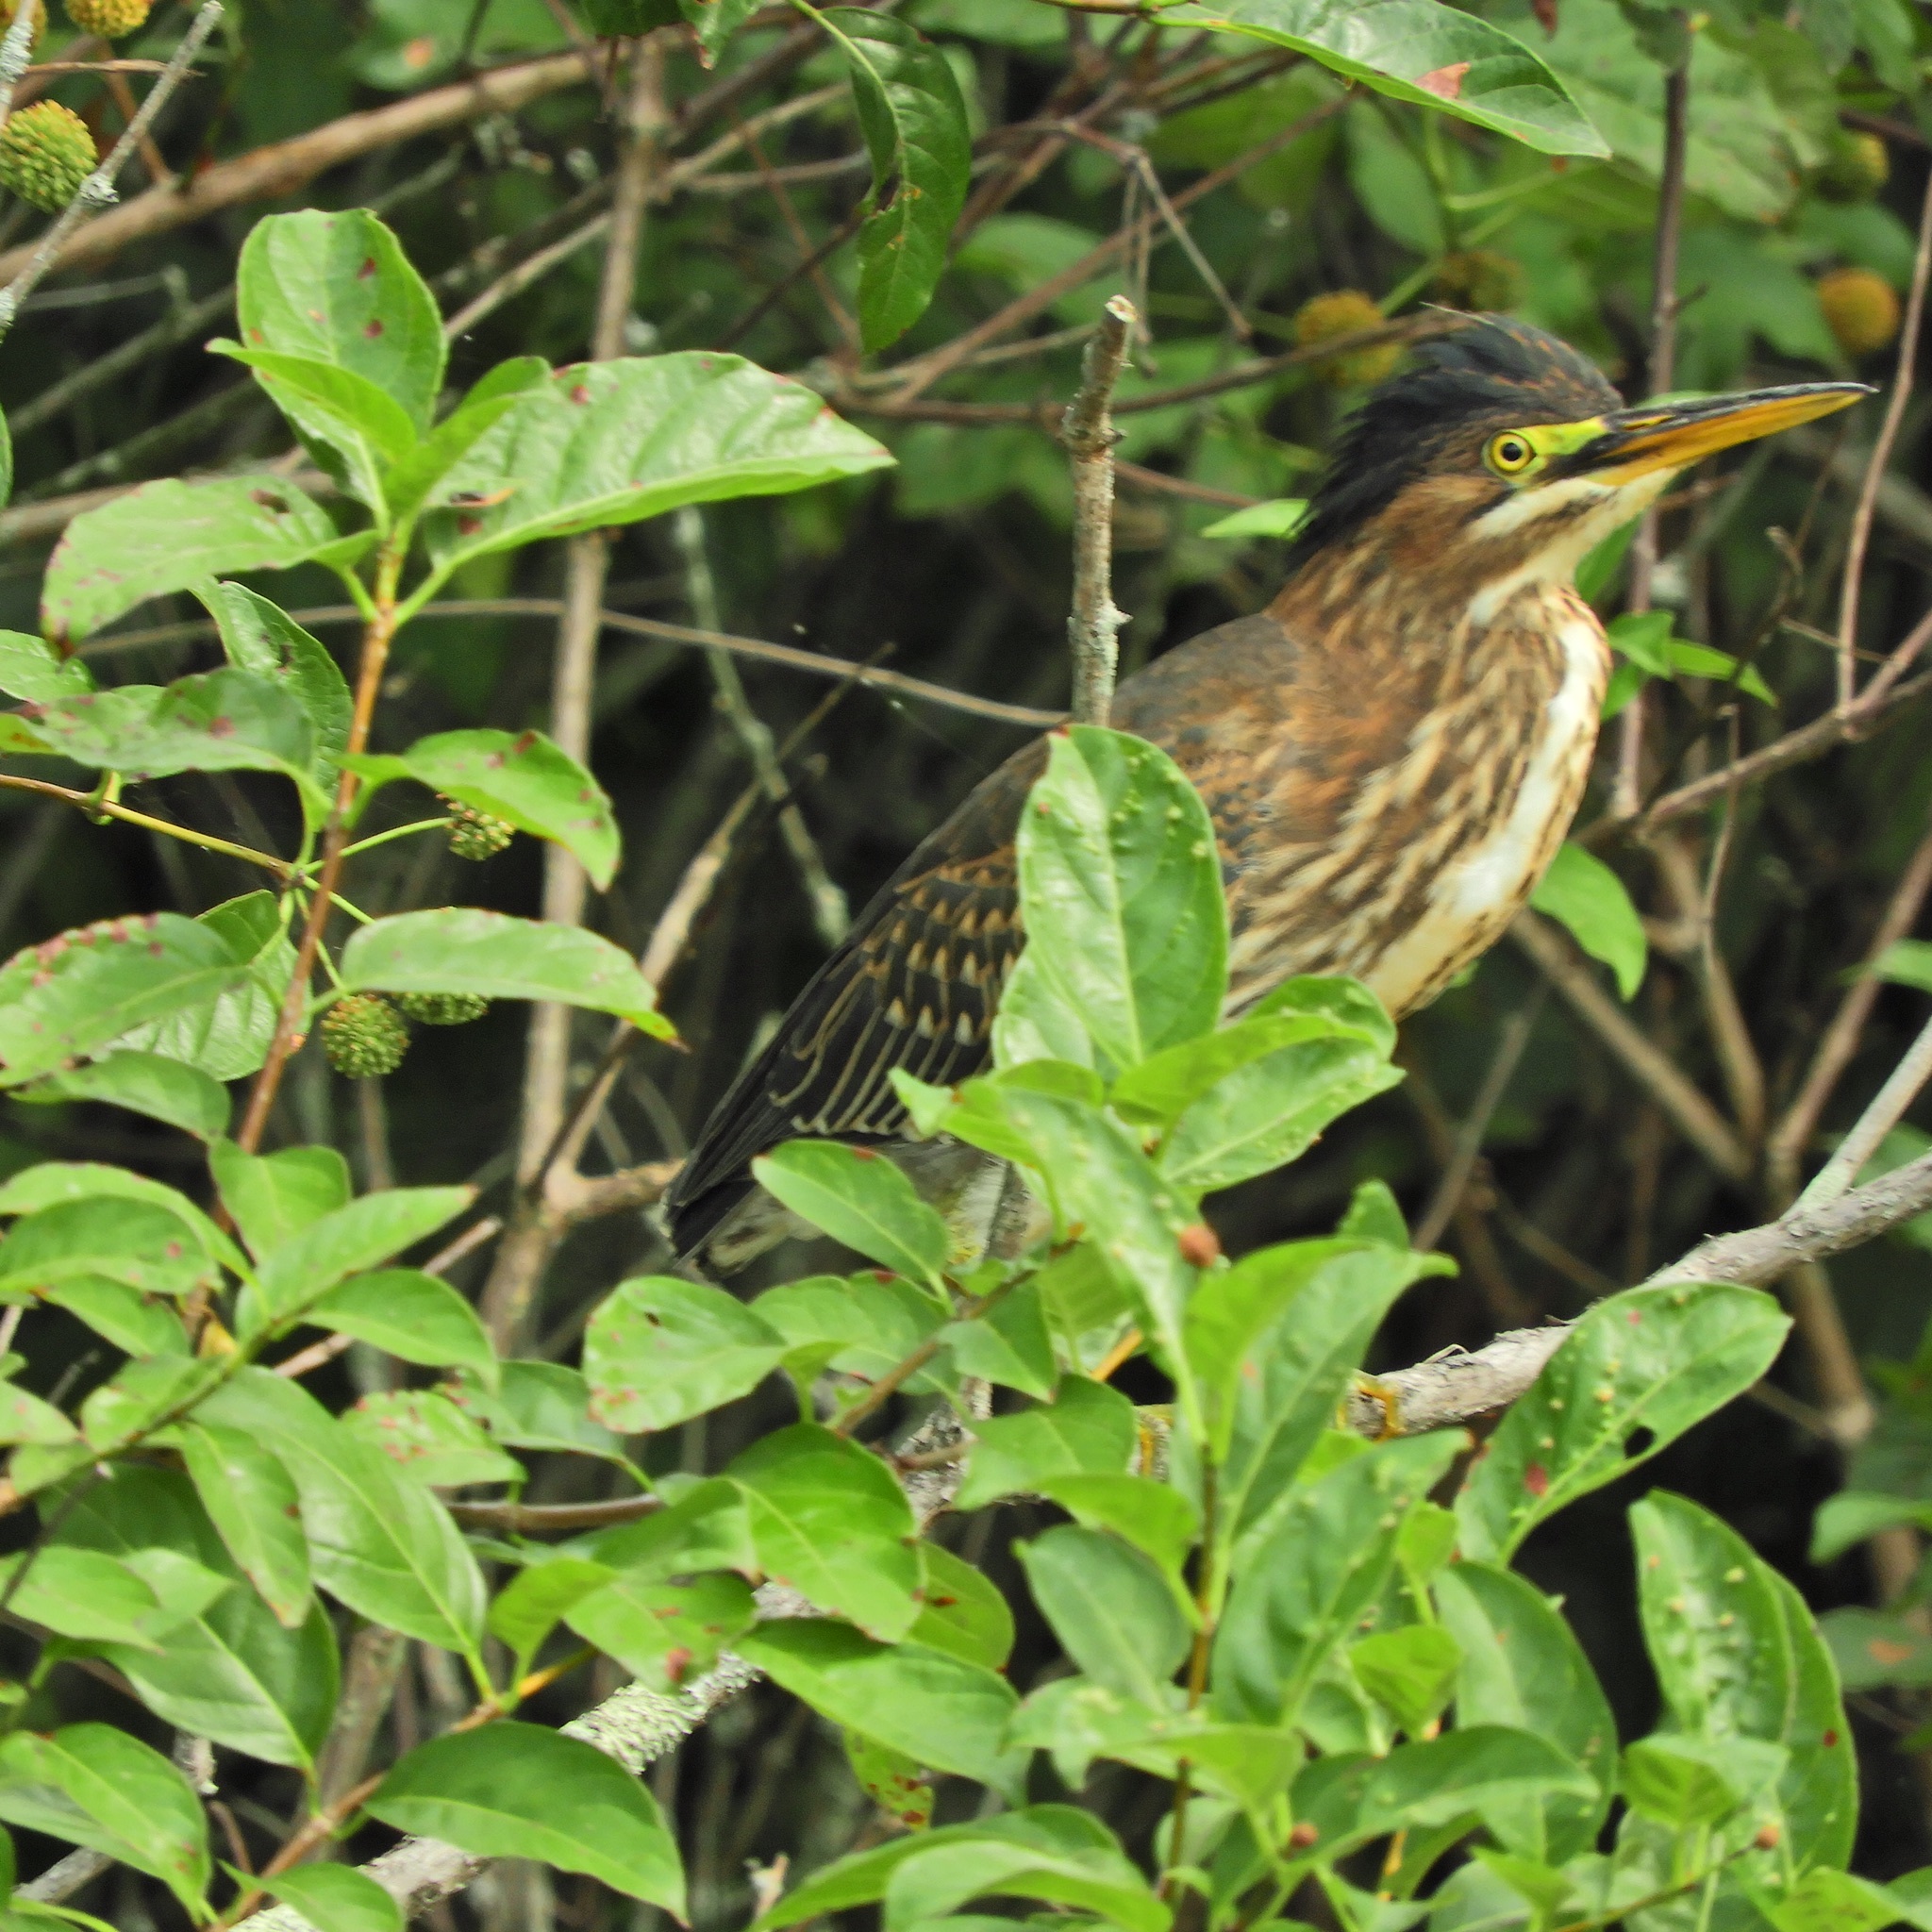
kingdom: Animalia
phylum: Chordata
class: Aves
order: Pelecaniformes
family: Ardeidae
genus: Butorides
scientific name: Butorides virescens
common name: Green heron
